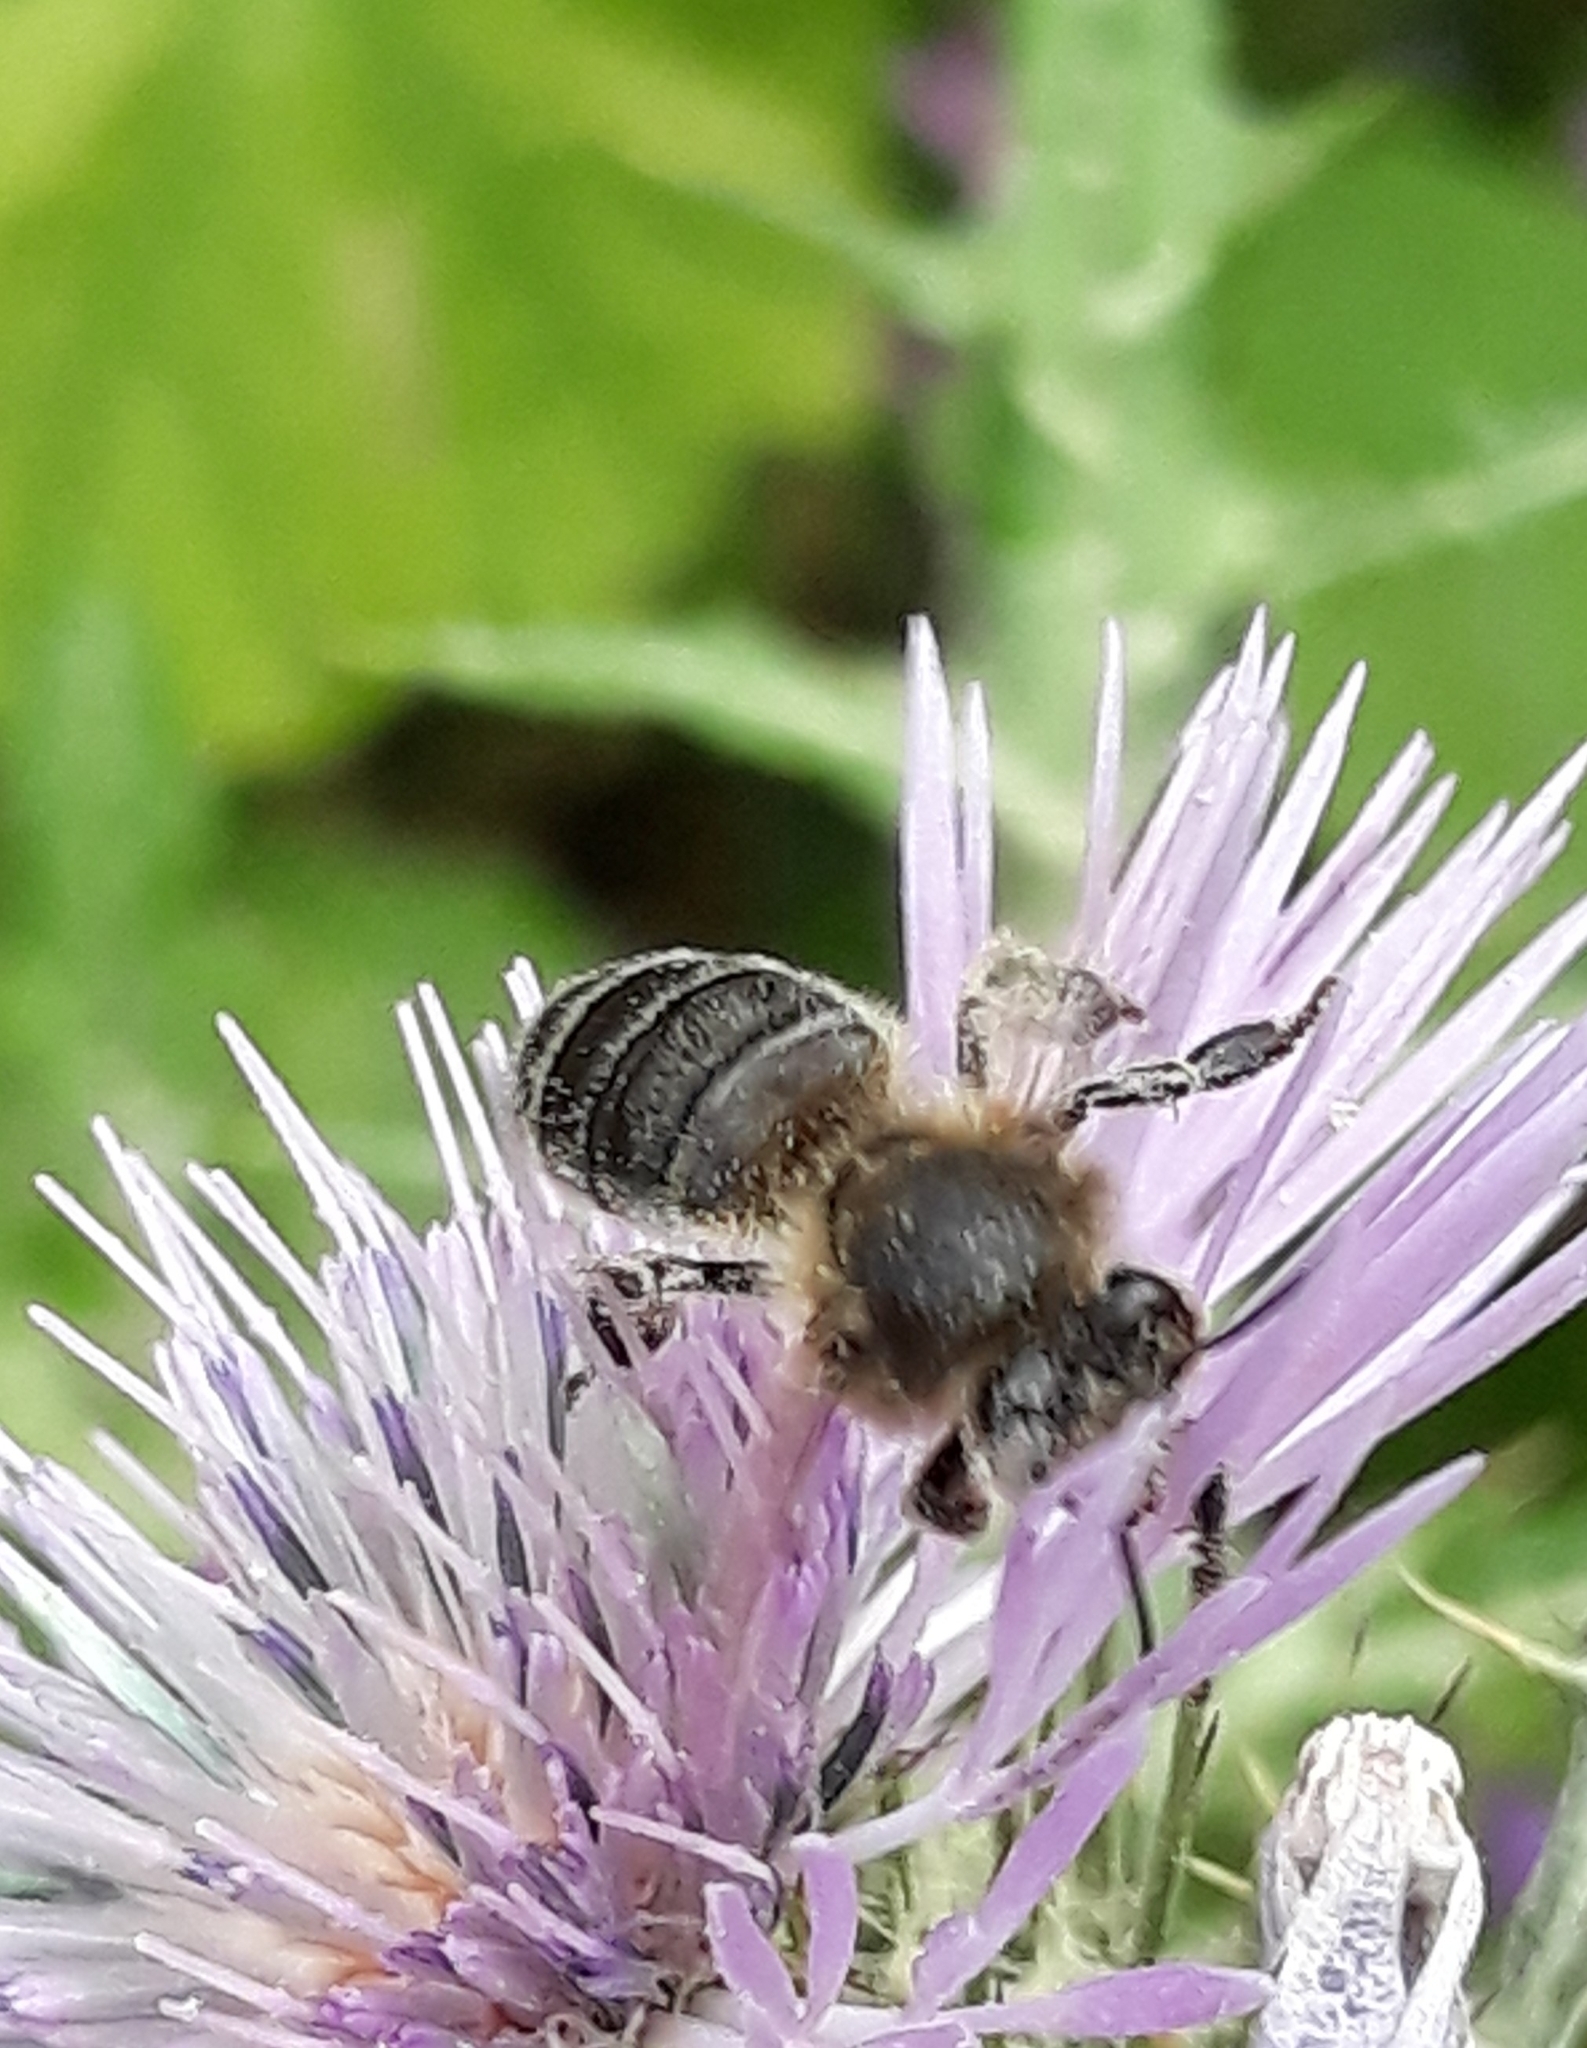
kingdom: Animalia
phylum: Arthropoda
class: Insecta
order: Hymenoptera
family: Apidae
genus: Apis
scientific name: Apis mellifera
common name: Honey bee
